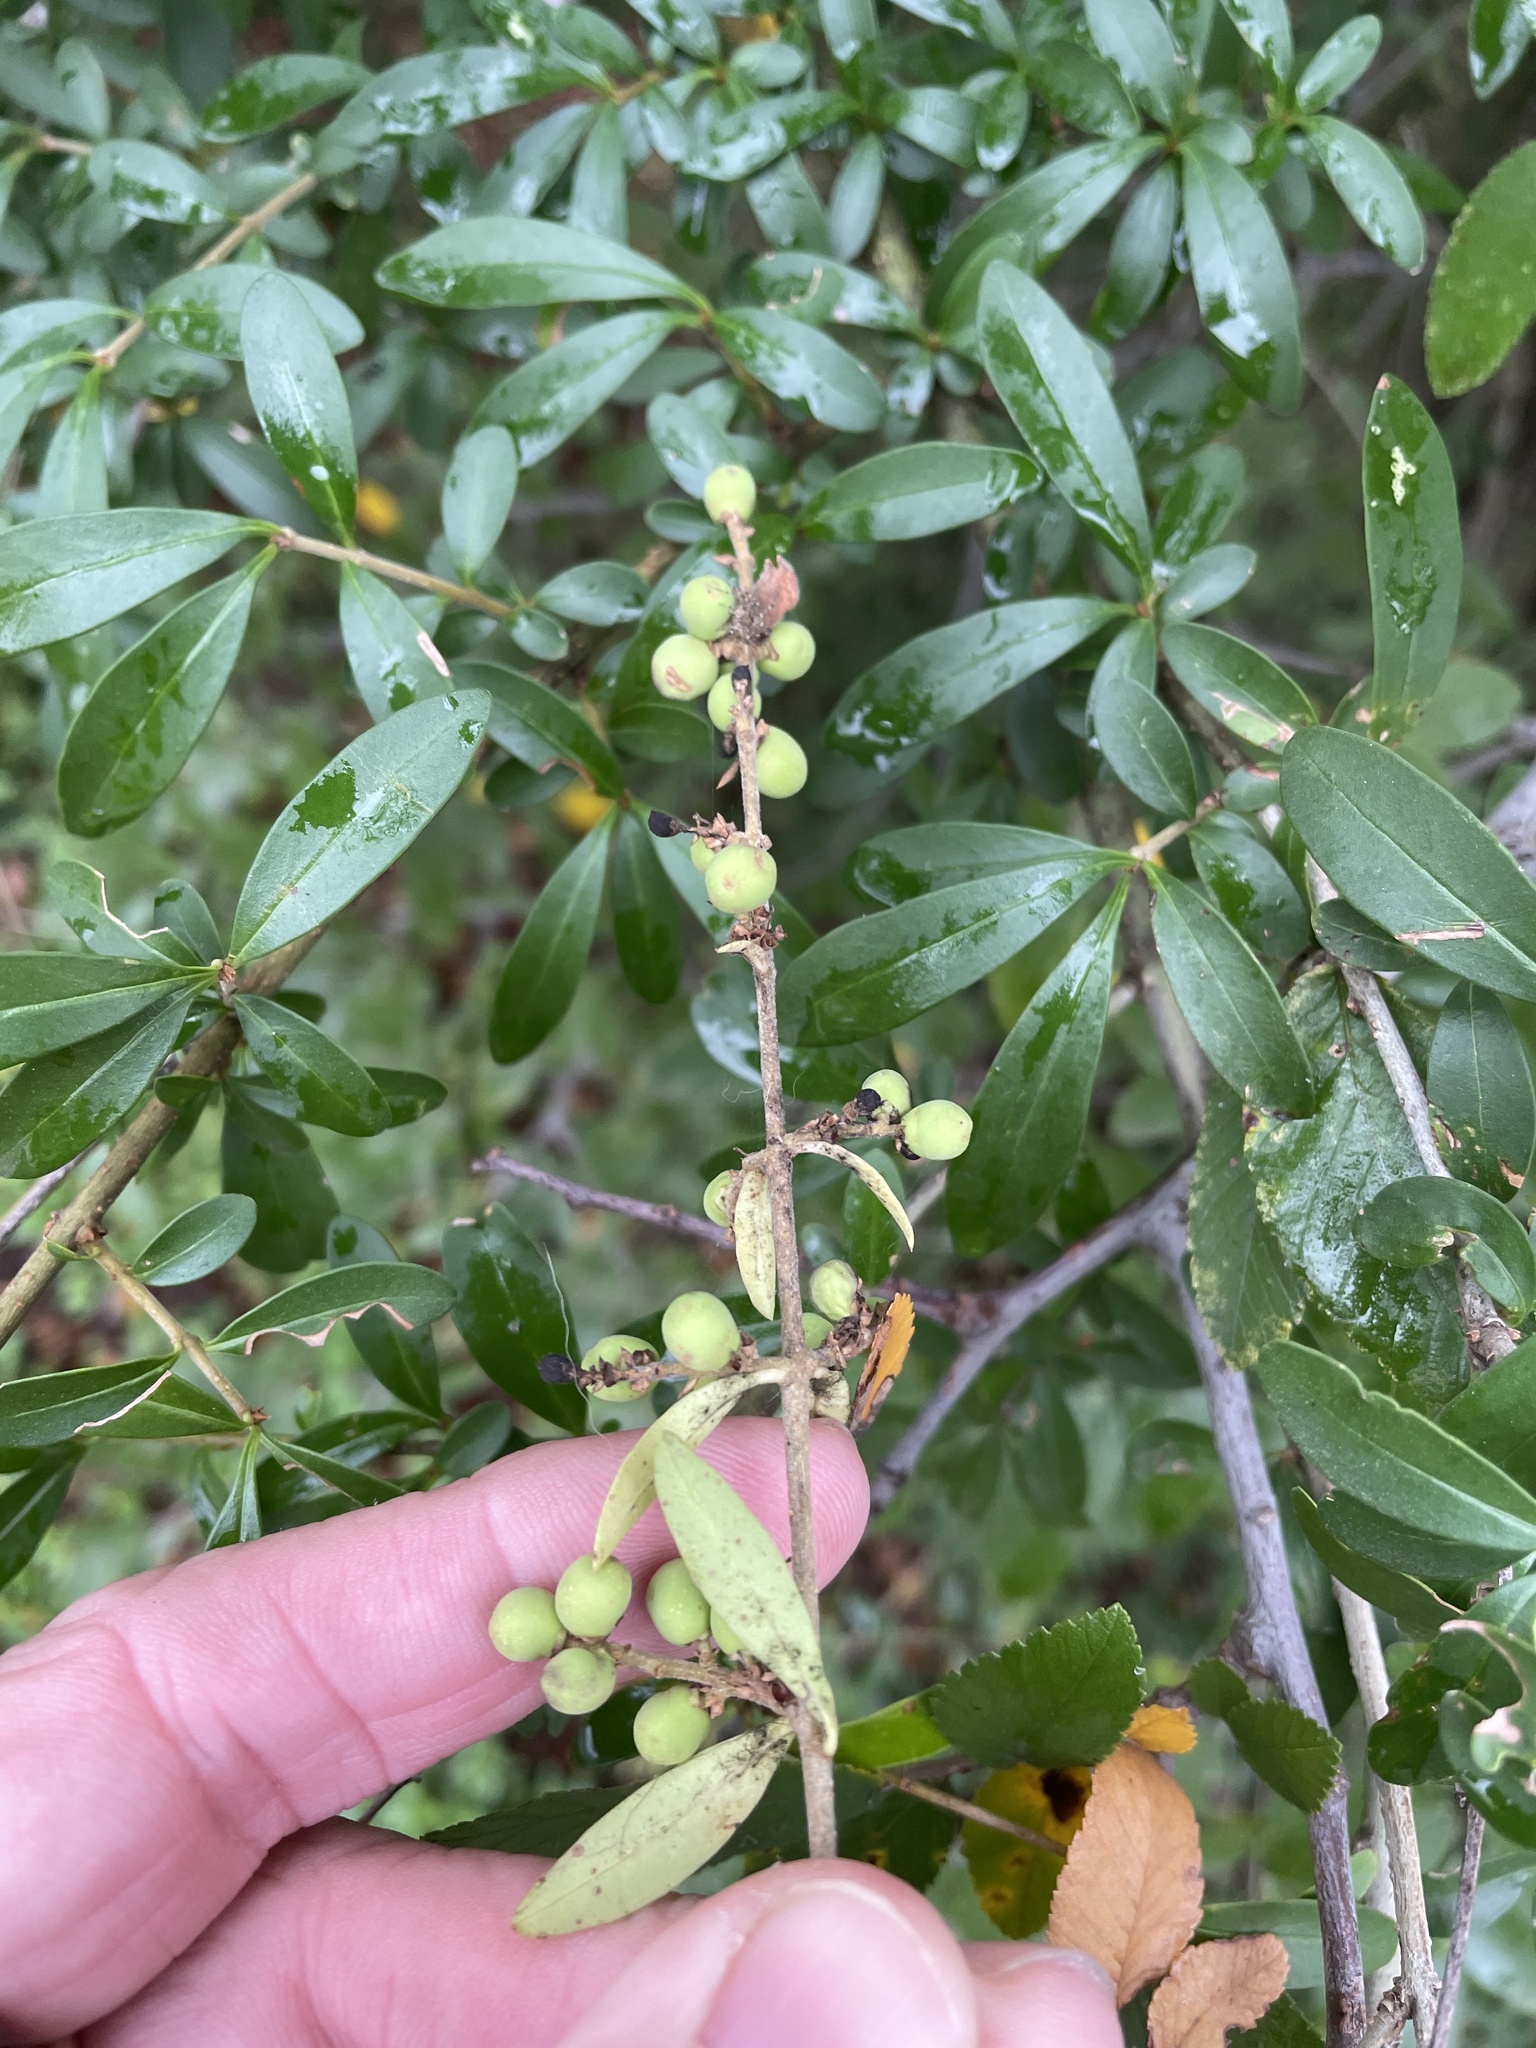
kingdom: Plantae
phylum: Tracheophyta
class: Magnoliopsida
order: Lamiales
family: Oleaceae
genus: Ligustrum
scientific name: Ligustrum quihoui
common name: Waxyleaf privet
